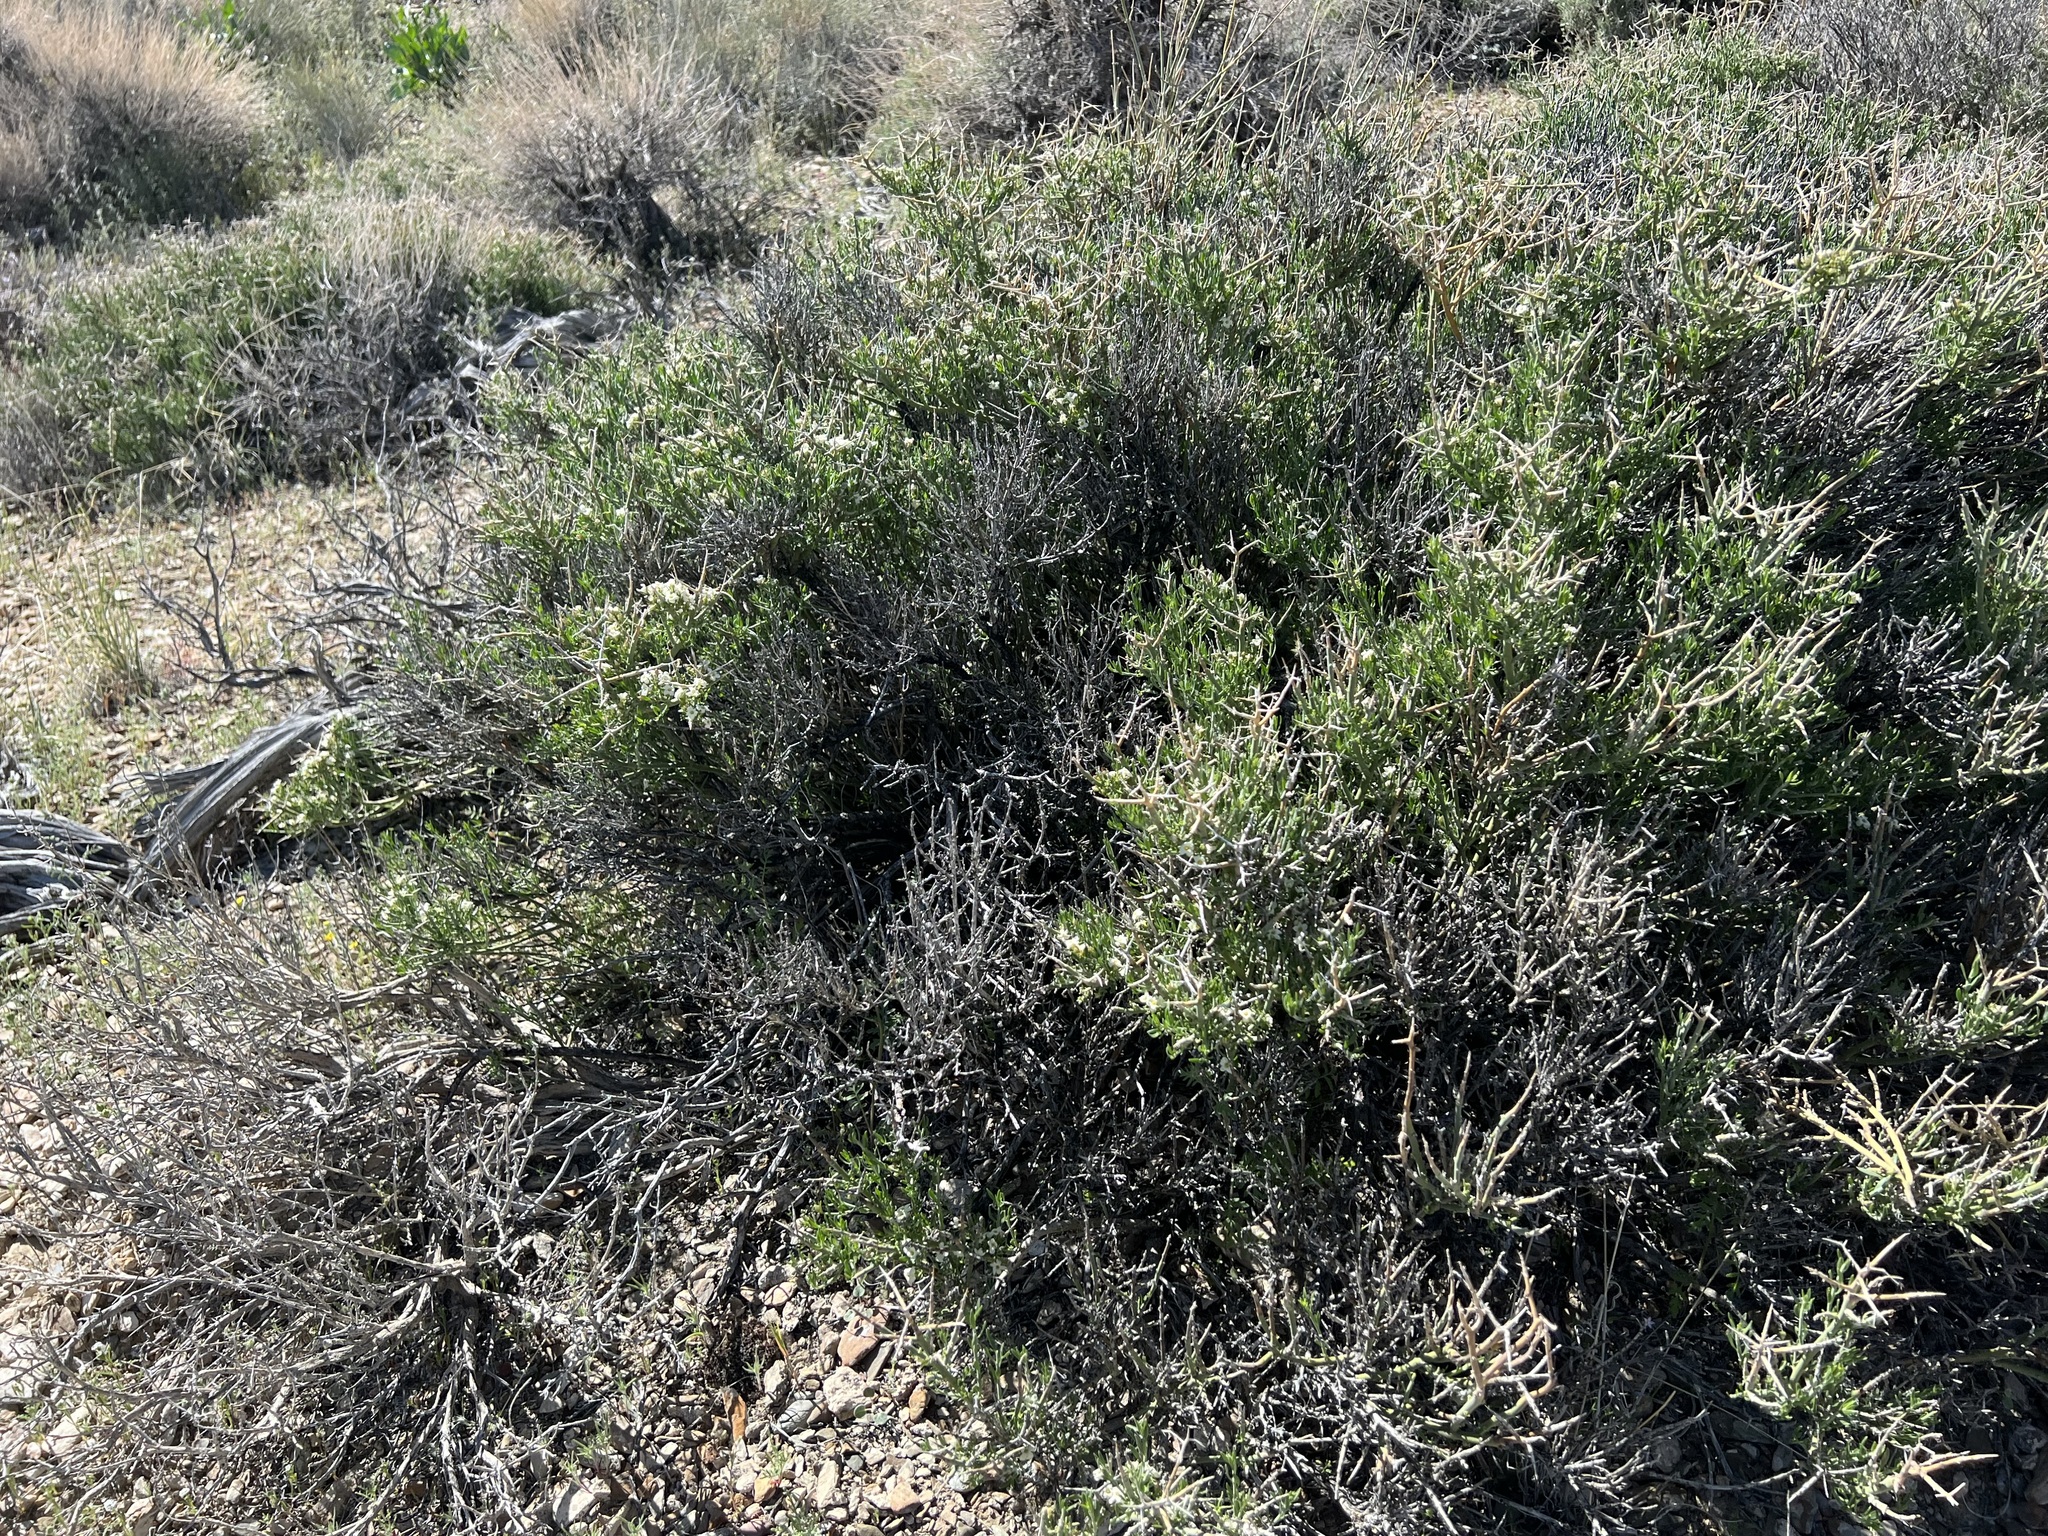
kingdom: Plantae
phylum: Tracheophyta
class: Magnoliopsida
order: Lamiales
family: Oleaceae
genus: Menodora
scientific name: Menodora spinescens
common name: Spiny menodora
